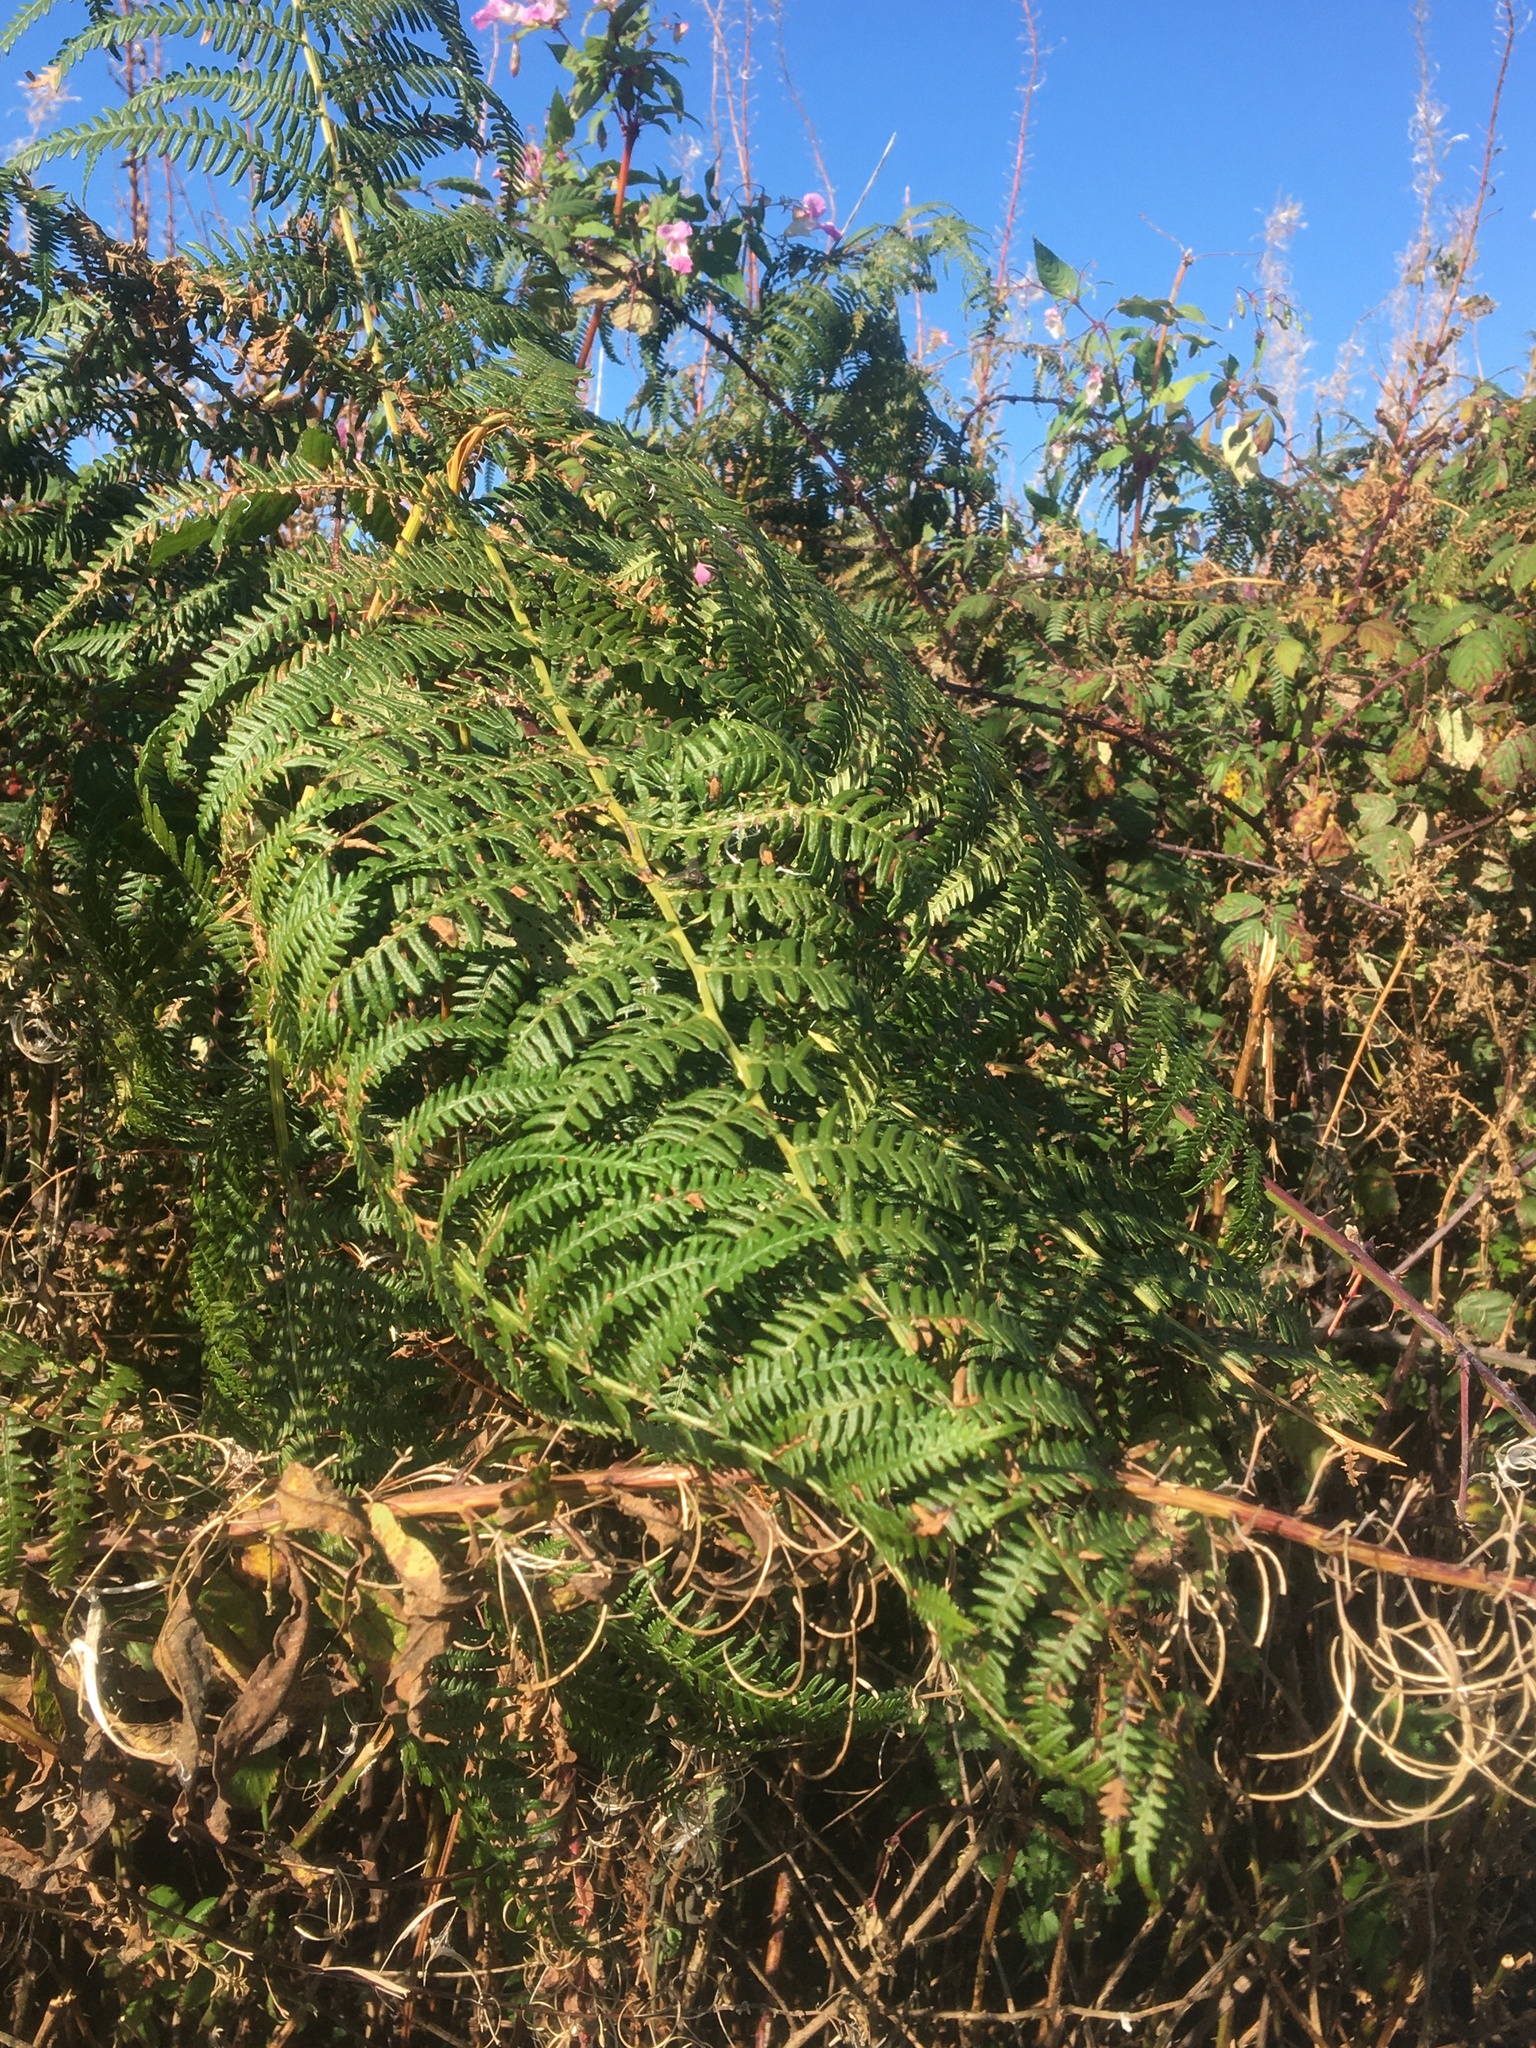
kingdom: Plantae
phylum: Tracheophyta
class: Polypodiopsida
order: Polypodiales
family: Dennstaedtiaceae
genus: Pteridium
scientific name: Pteridium aquilinum
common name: Bracken
